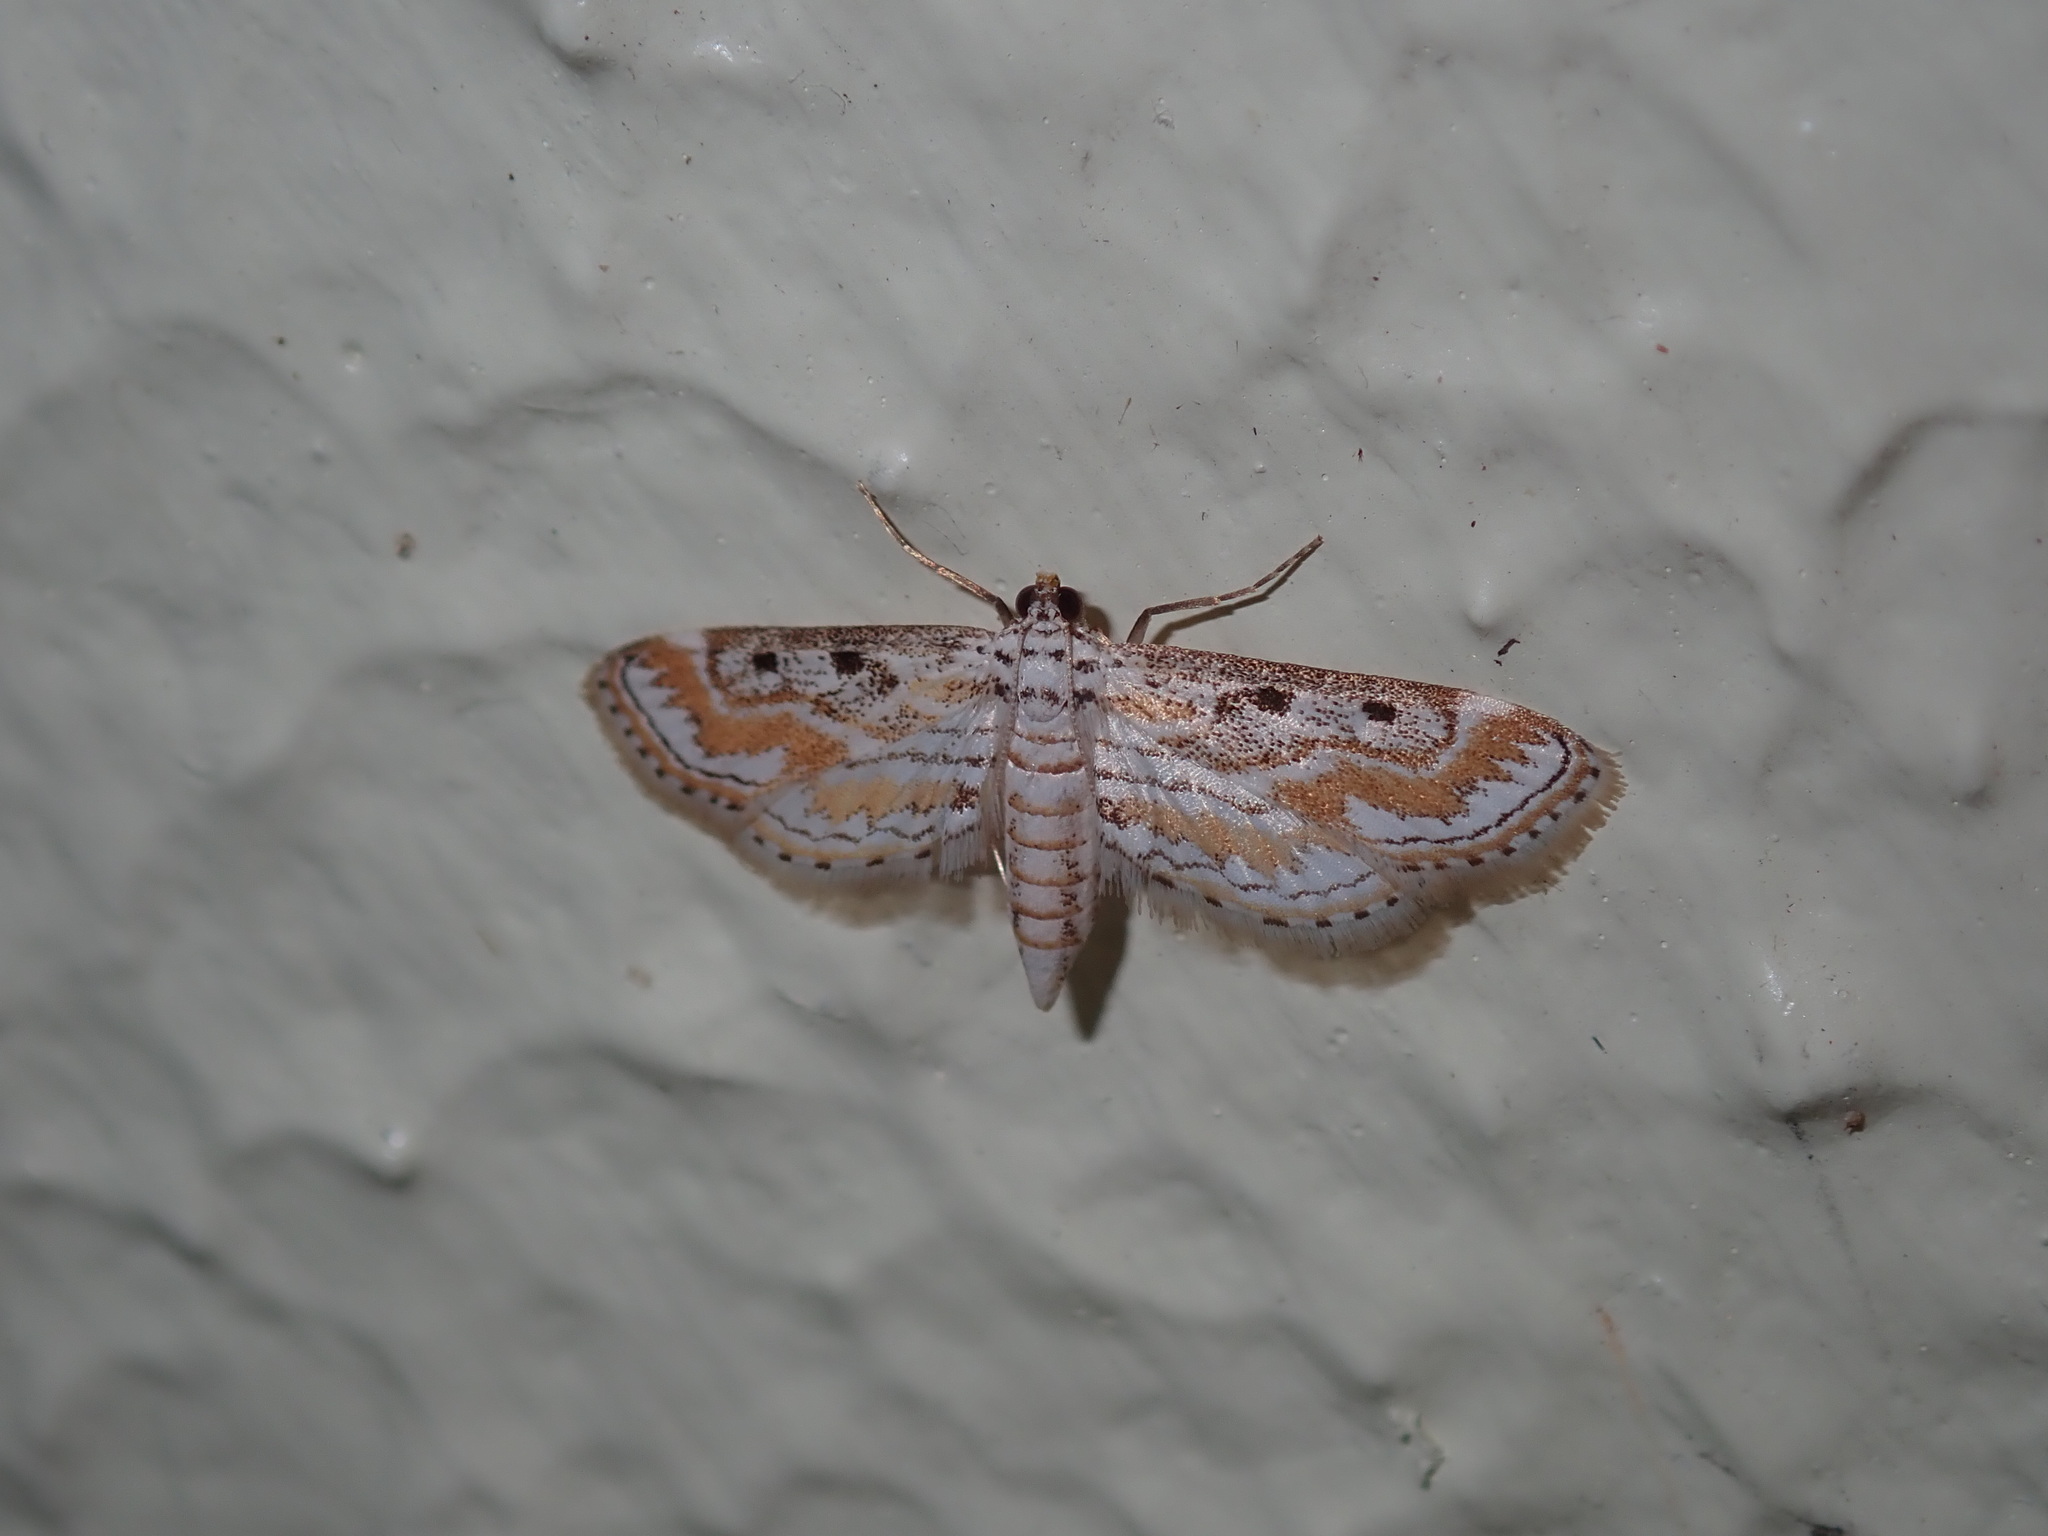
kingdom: Animalia
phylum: Arthropoda
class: Insecta
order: Lepidoptera
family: Crambidae
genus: Parapoynx
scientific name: Parapoynx dentizonalis
